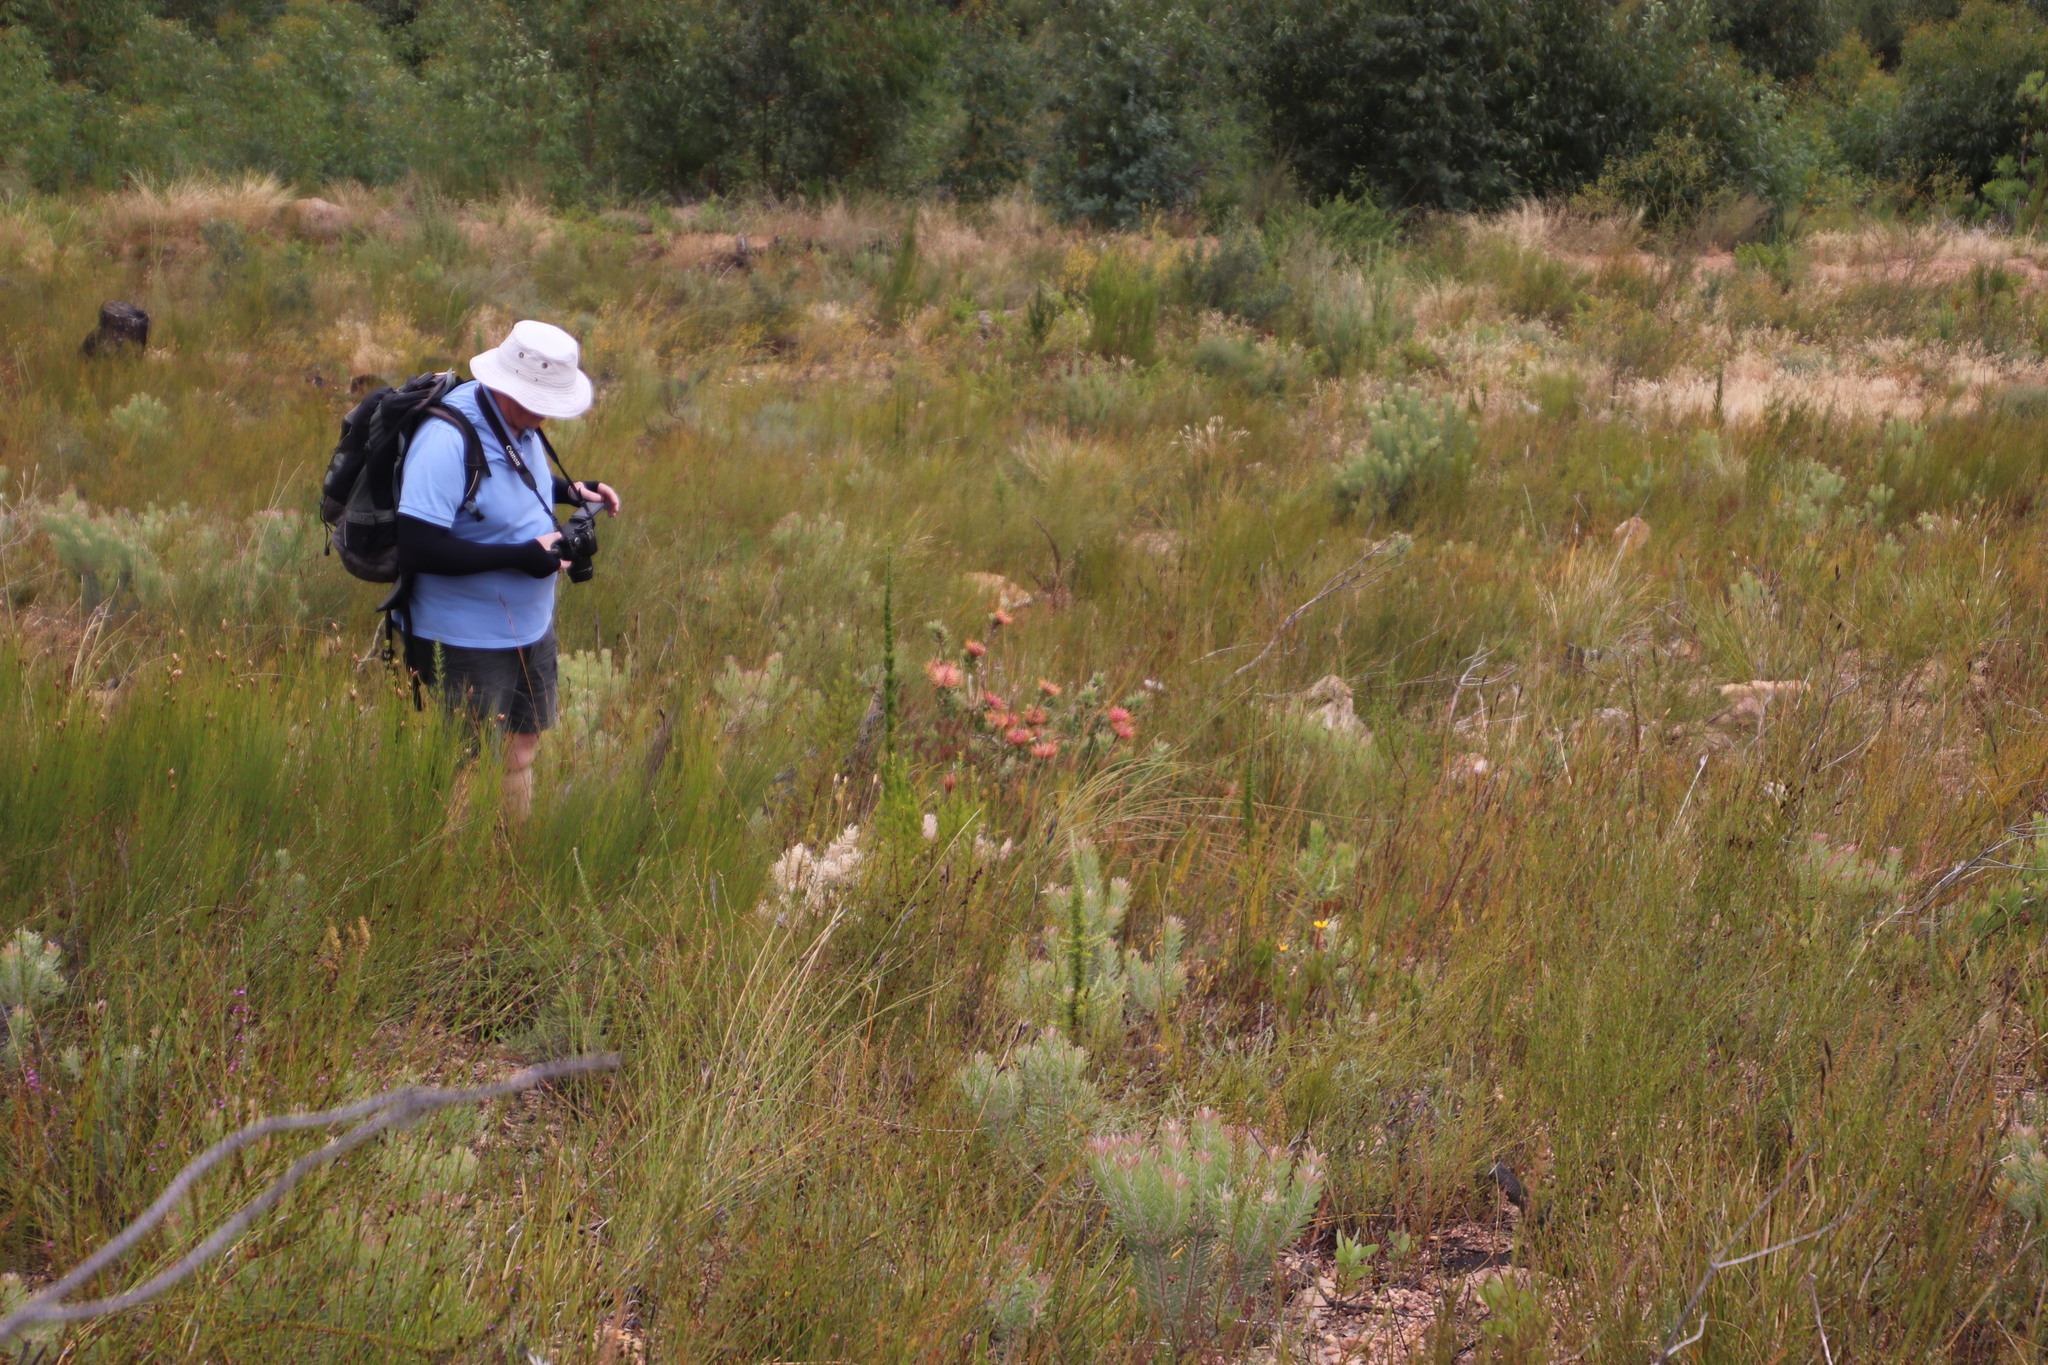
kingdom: Plantae
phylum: Tracheophyta
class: Magnoliopsida
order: Proteales
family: Proteaceae
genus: Leucospermum
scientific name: Leucospermum tottum
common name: Ribbon pincushion
